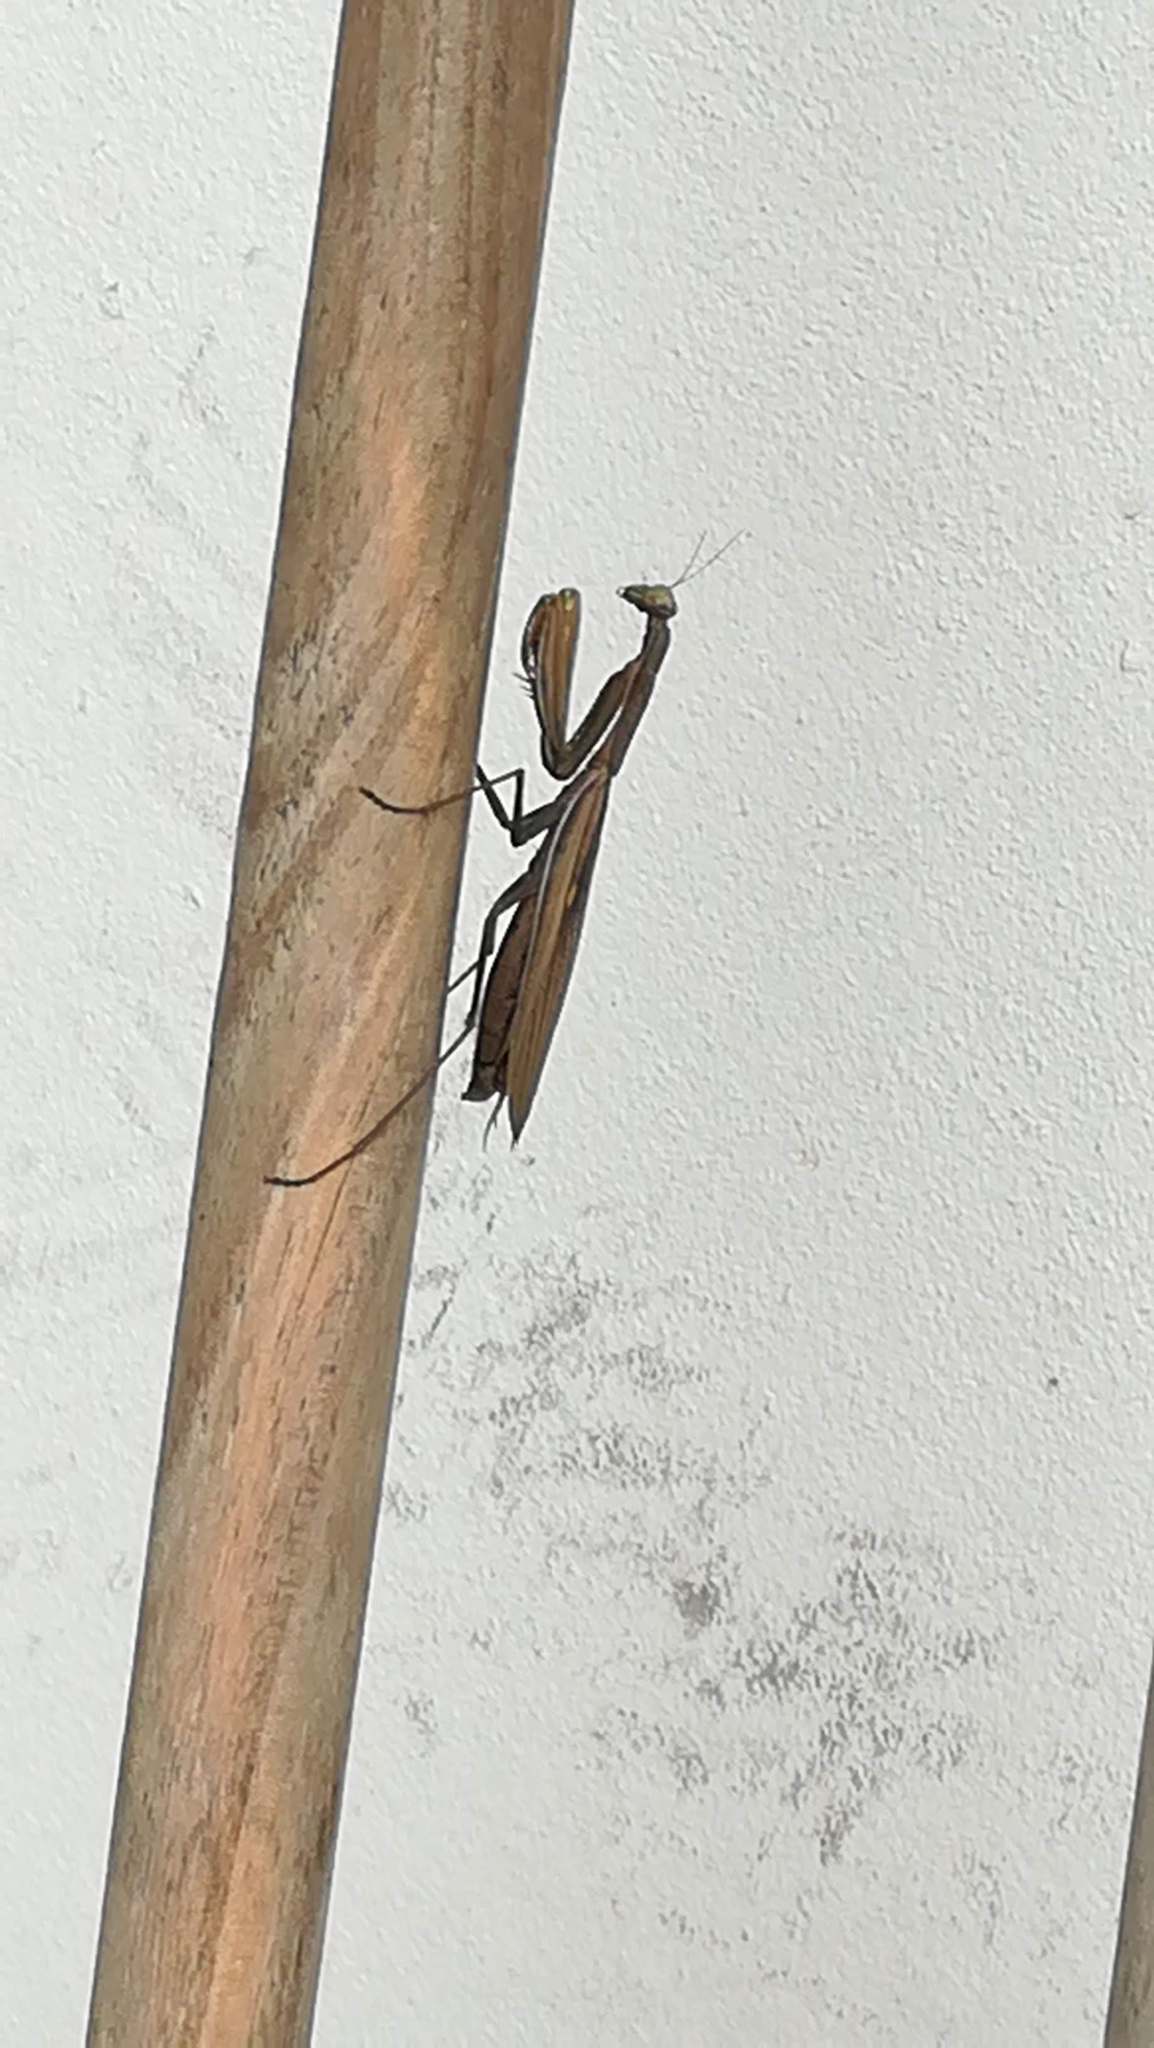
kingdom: Animalia
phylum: Arthropoda
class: Insecta
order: Mantodea
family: Mantidae
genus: Mantis
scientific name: Mantis religiosa
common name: Praying mantis
